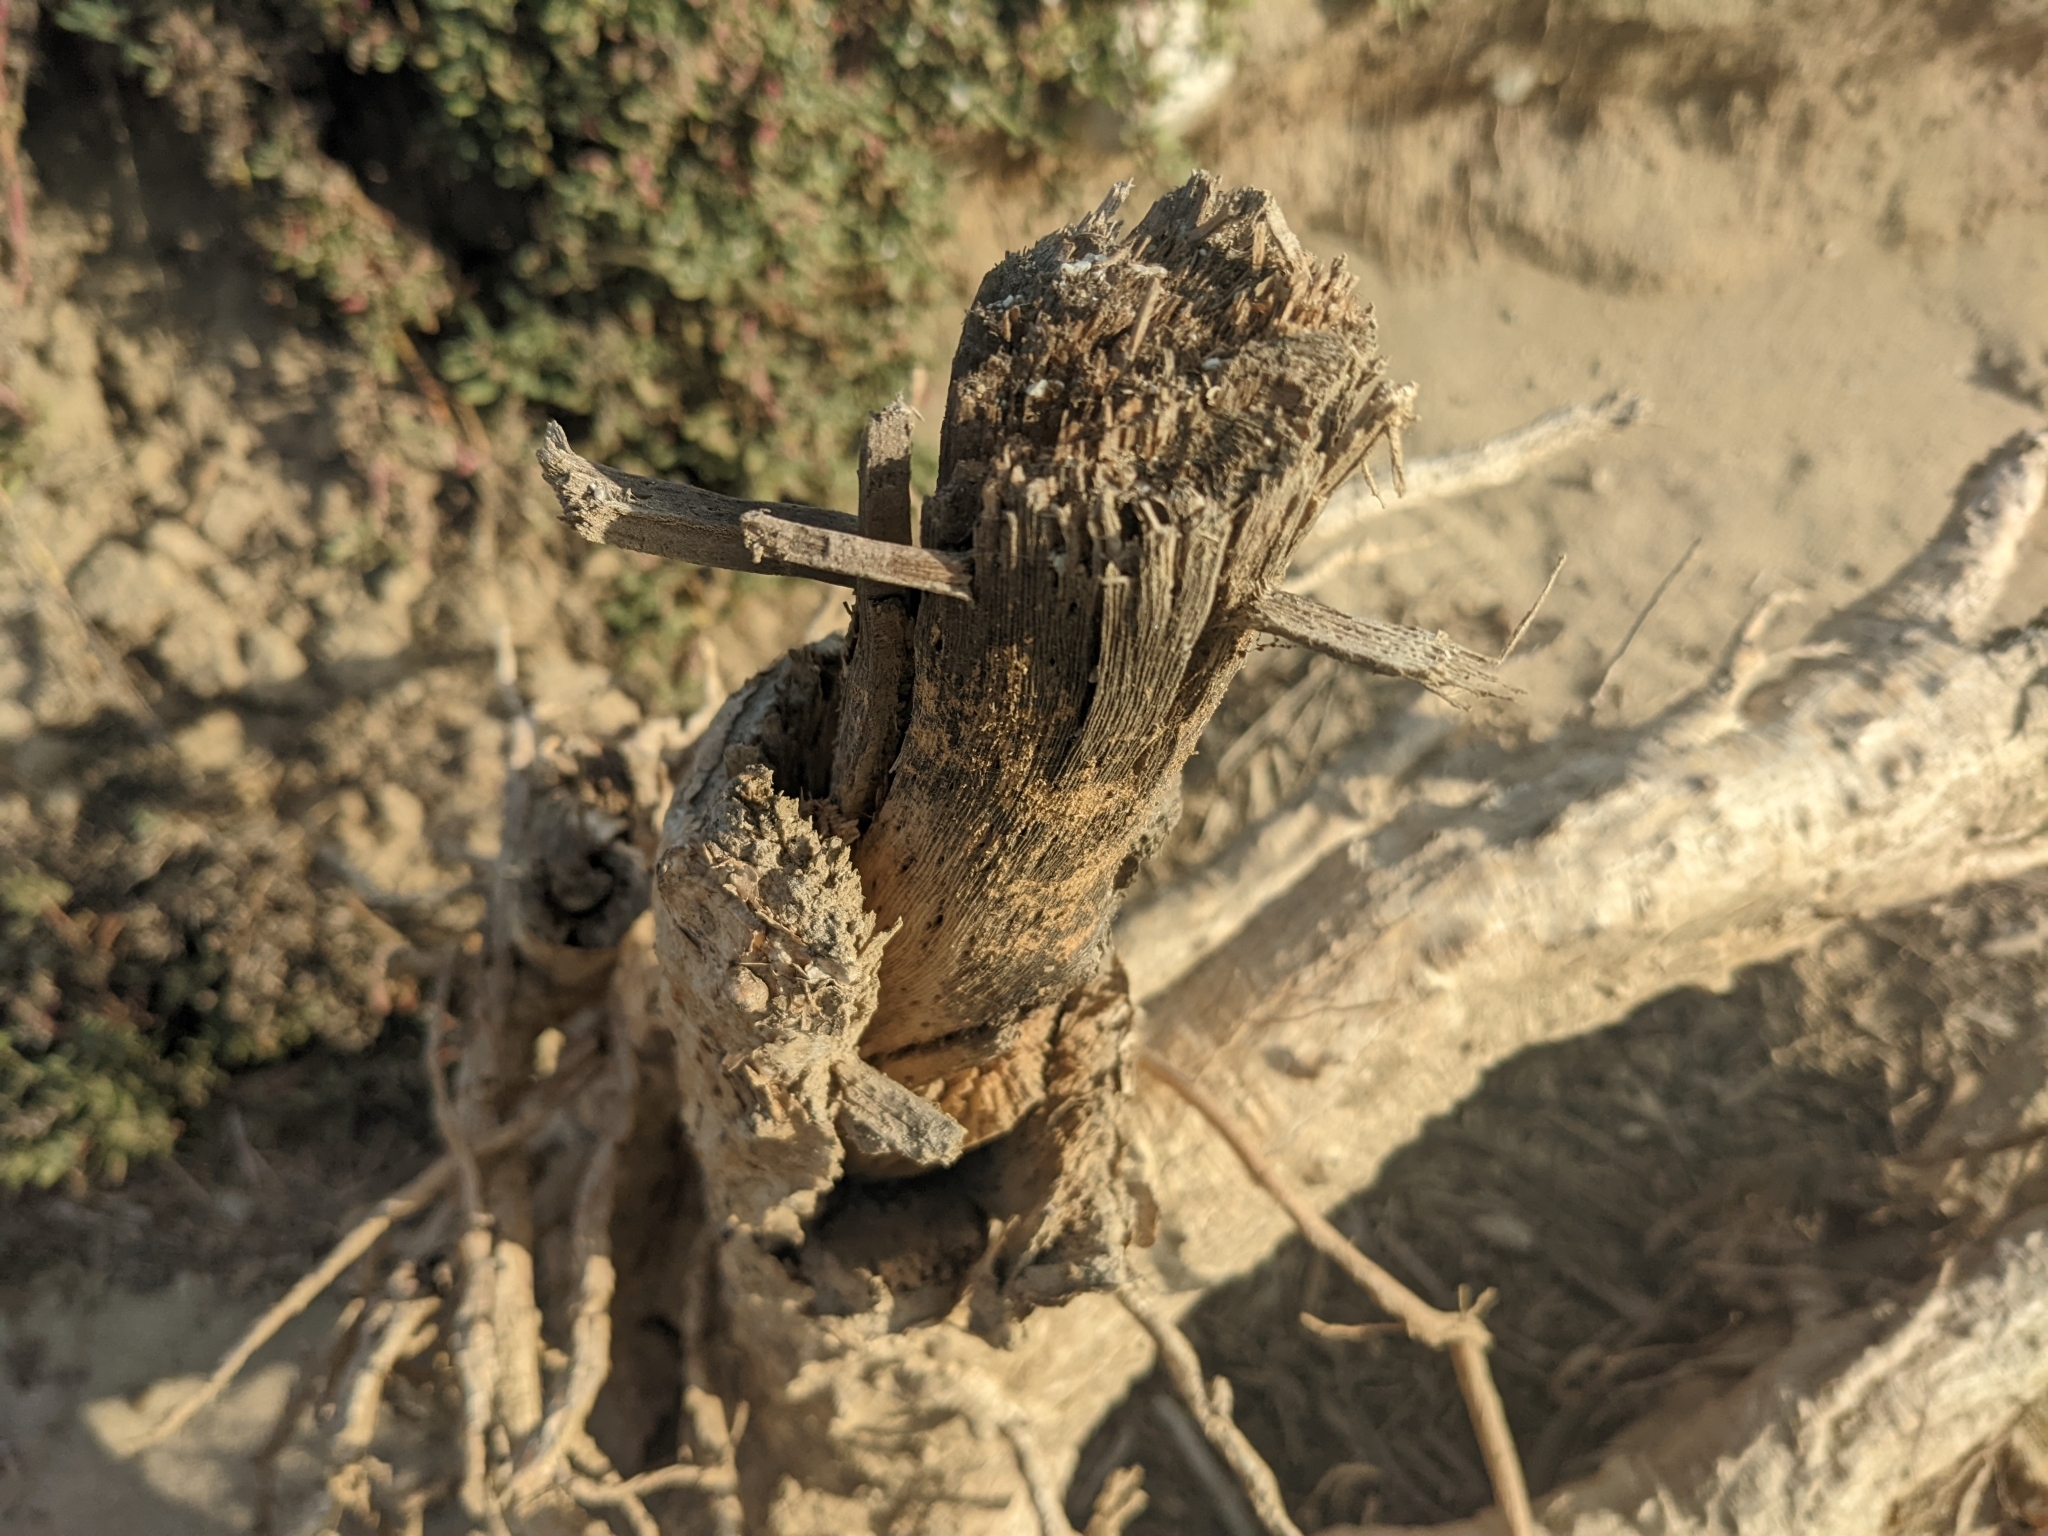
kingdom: Plantae
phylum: Tracheophyta
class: Magnoliopsida
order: Caryophyllales
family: Cactaceae
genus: Pachycereus
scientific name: Pachycereus pringlei
